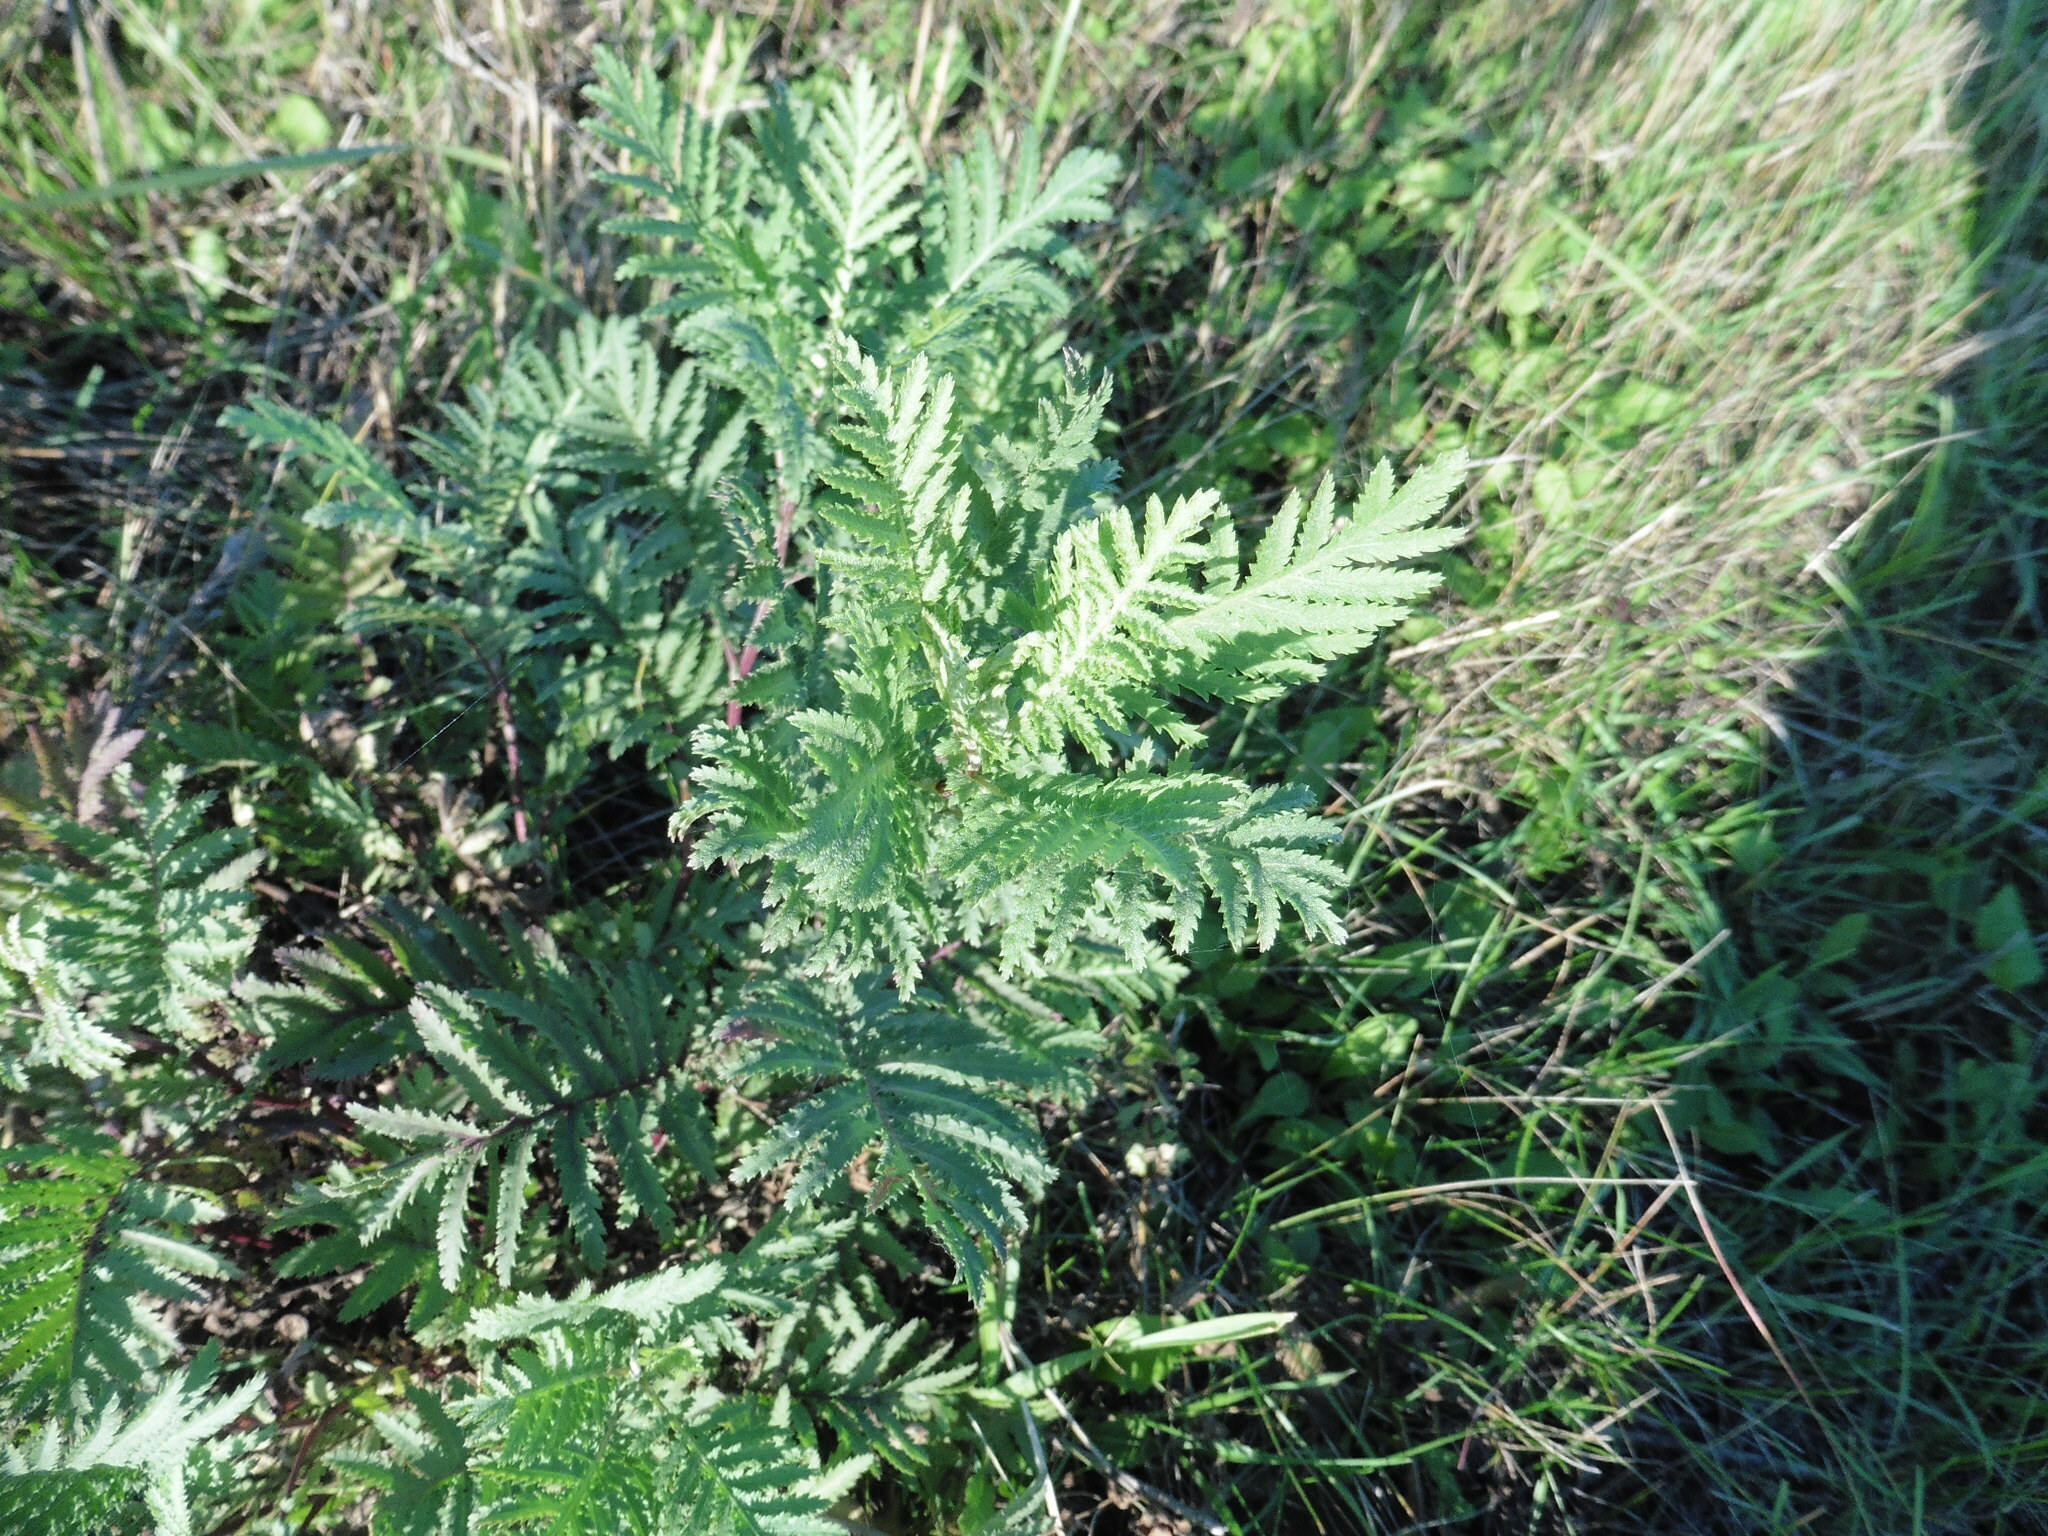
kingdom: Plantae
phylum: Tracheophyta
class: Magnoliopsida
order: Asterales
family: Asteraceae
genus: Tanacetum
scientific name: Tanacetum vulgare
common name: Common tansy
